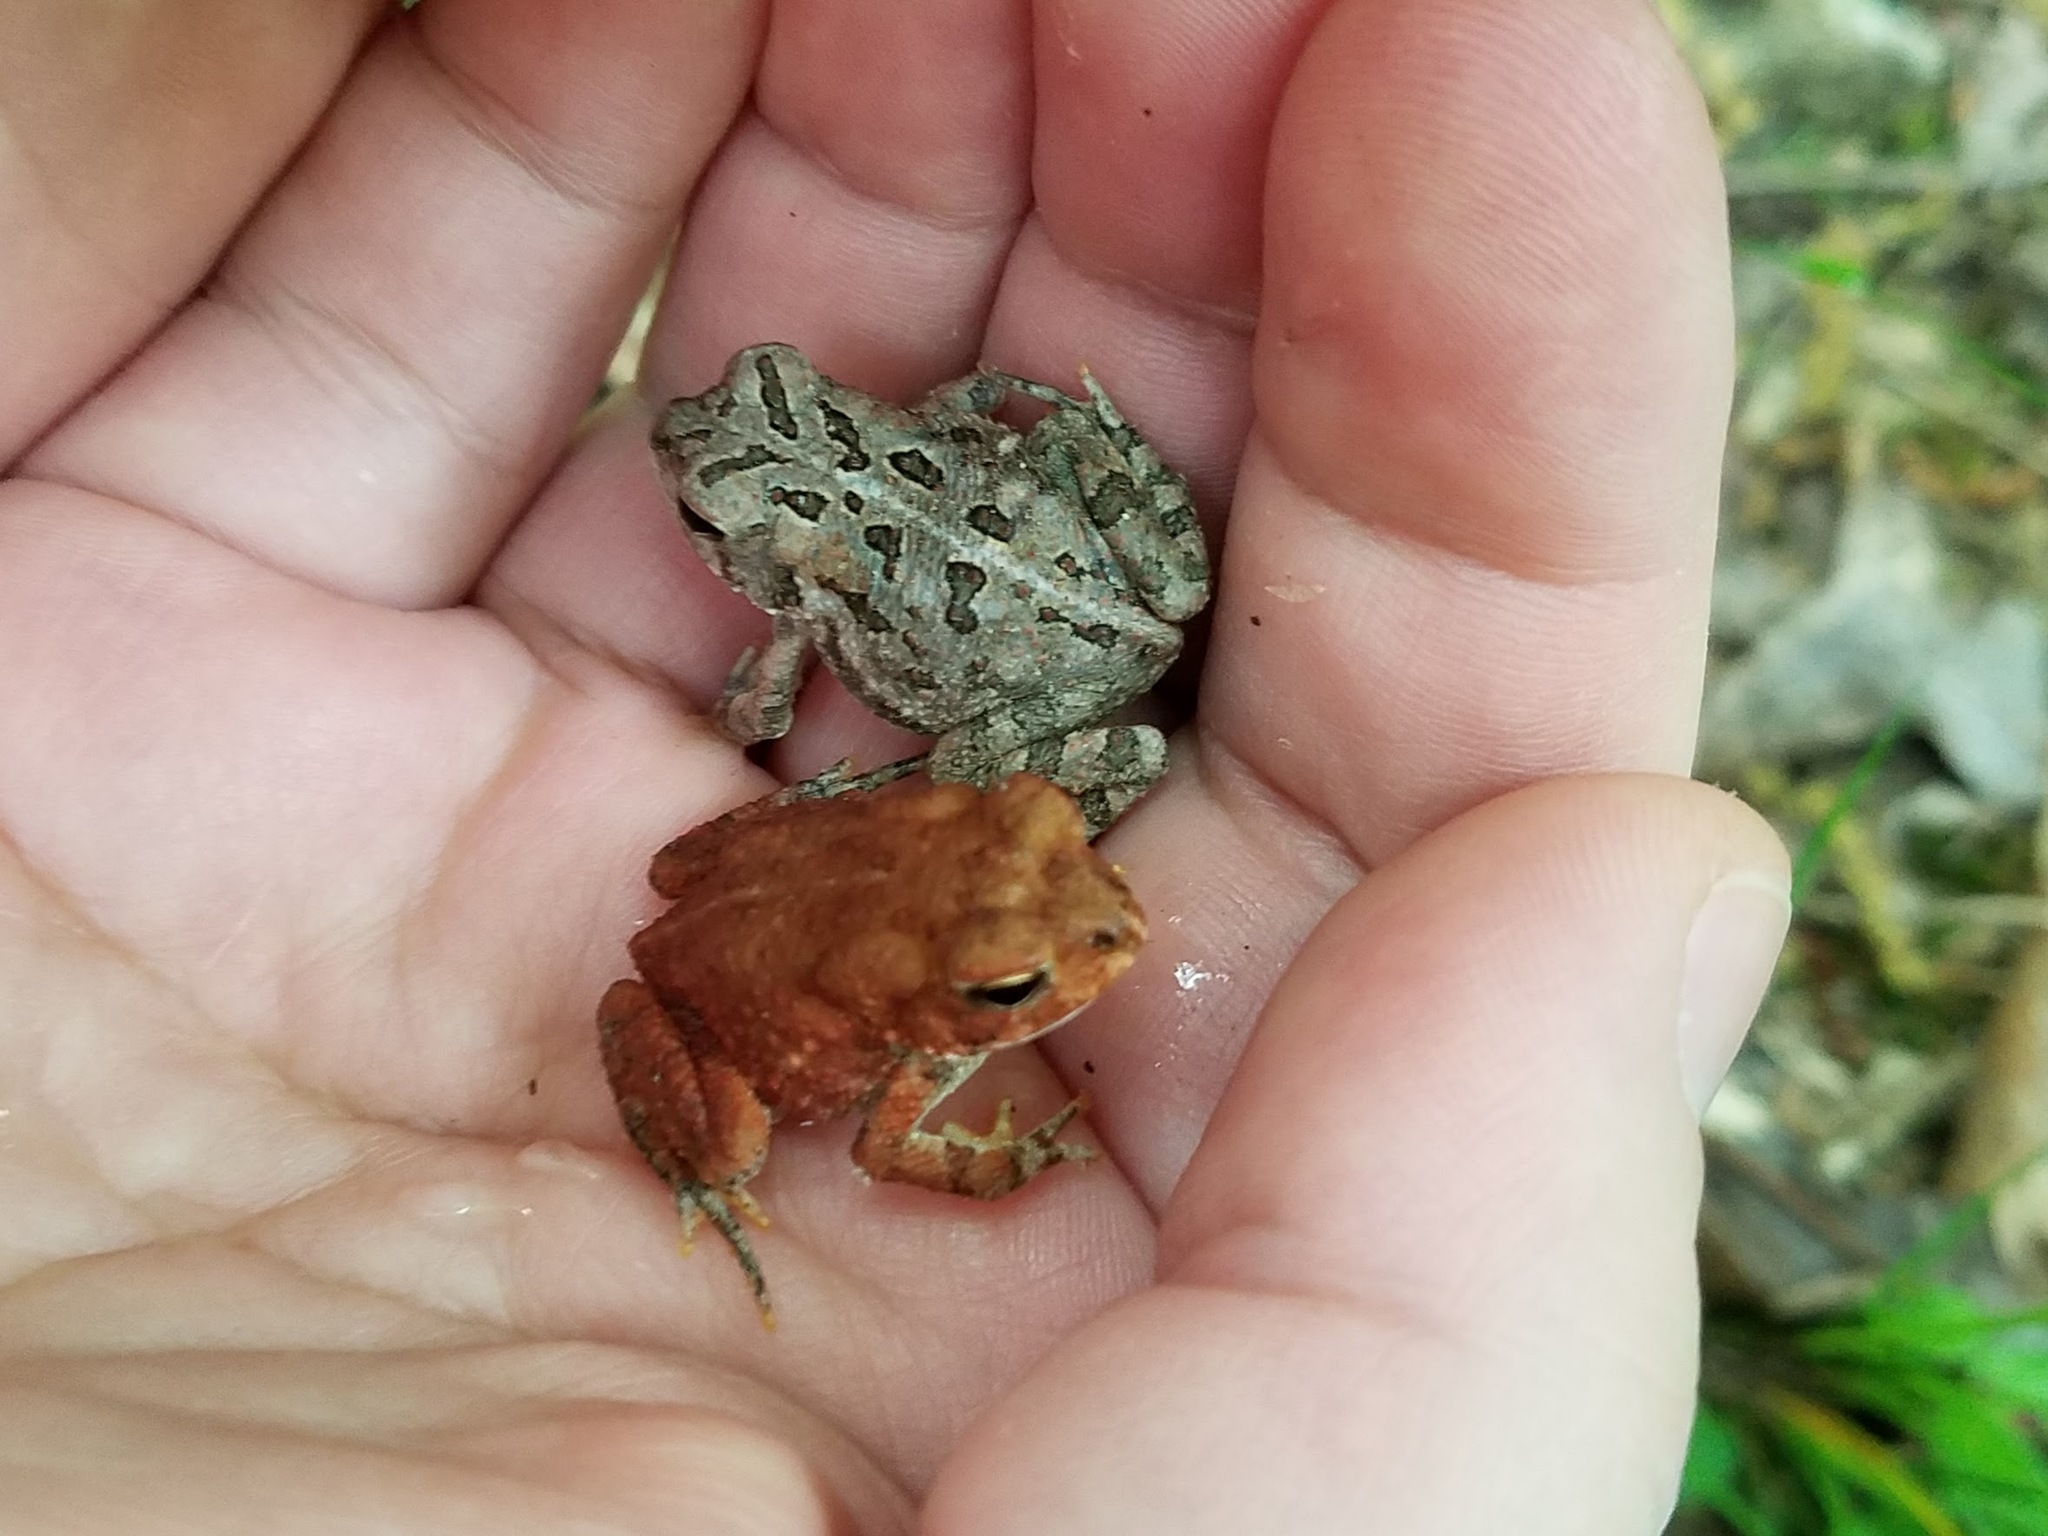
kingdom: Animalia
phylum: Chordata
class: Amphibia
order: Anura
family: Bufonidae
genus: Anaxyrus
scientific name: Anaxyrus fowleri
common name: Fowler's toad
